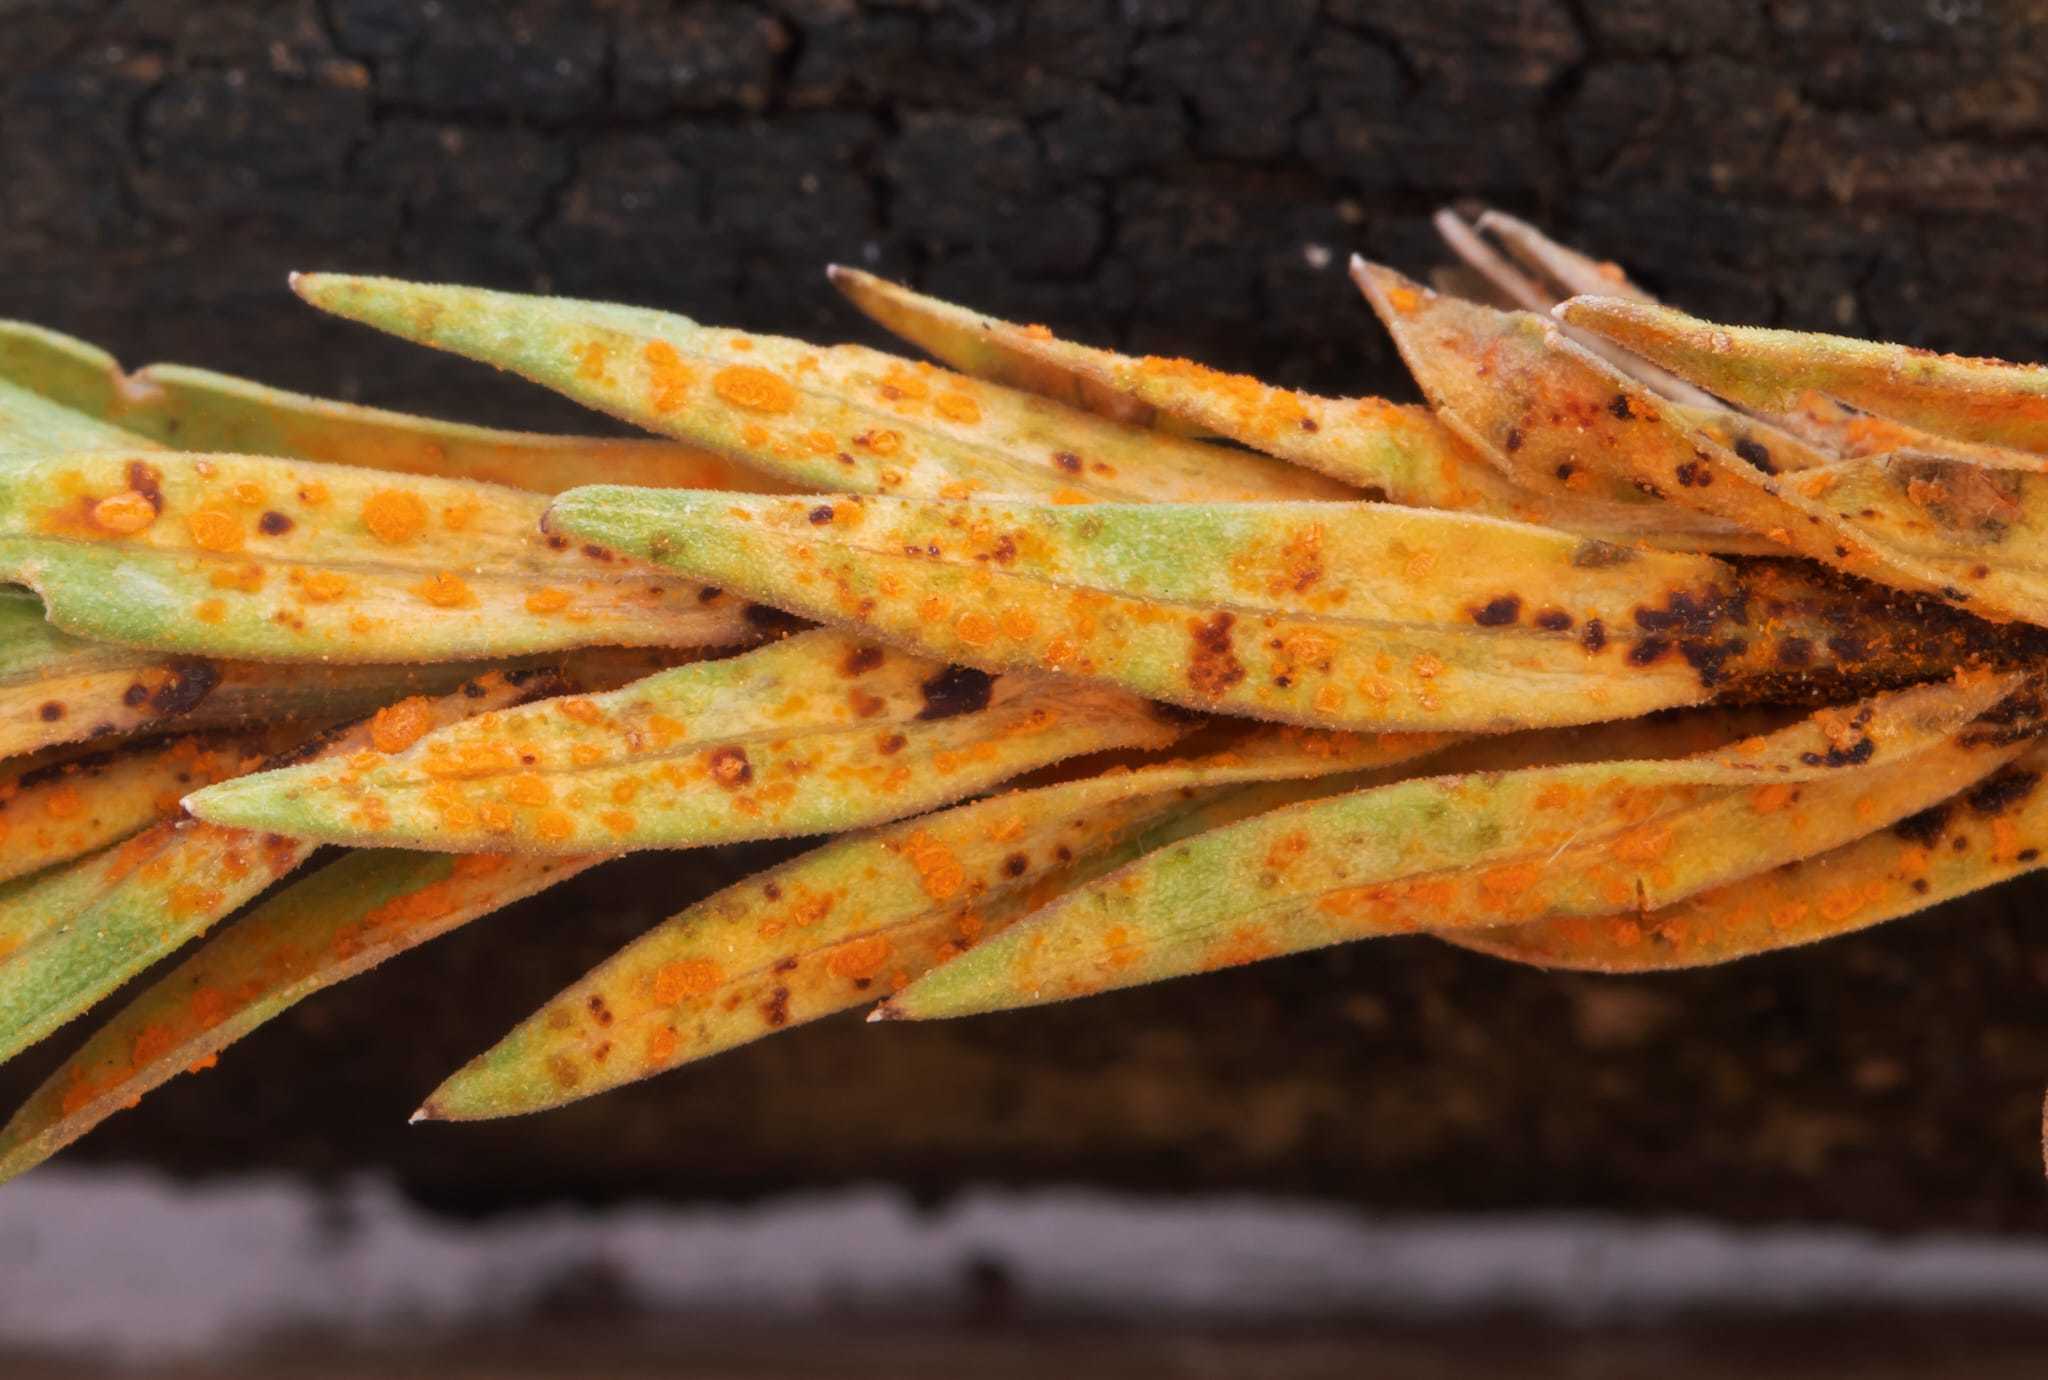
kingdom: Fungi
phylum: Basidiomycota
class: Pucciniomycetes
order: Pucciniales
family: Melampsoraceae
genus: Melampsora
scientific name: Melampsora lini
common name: Flax rust
